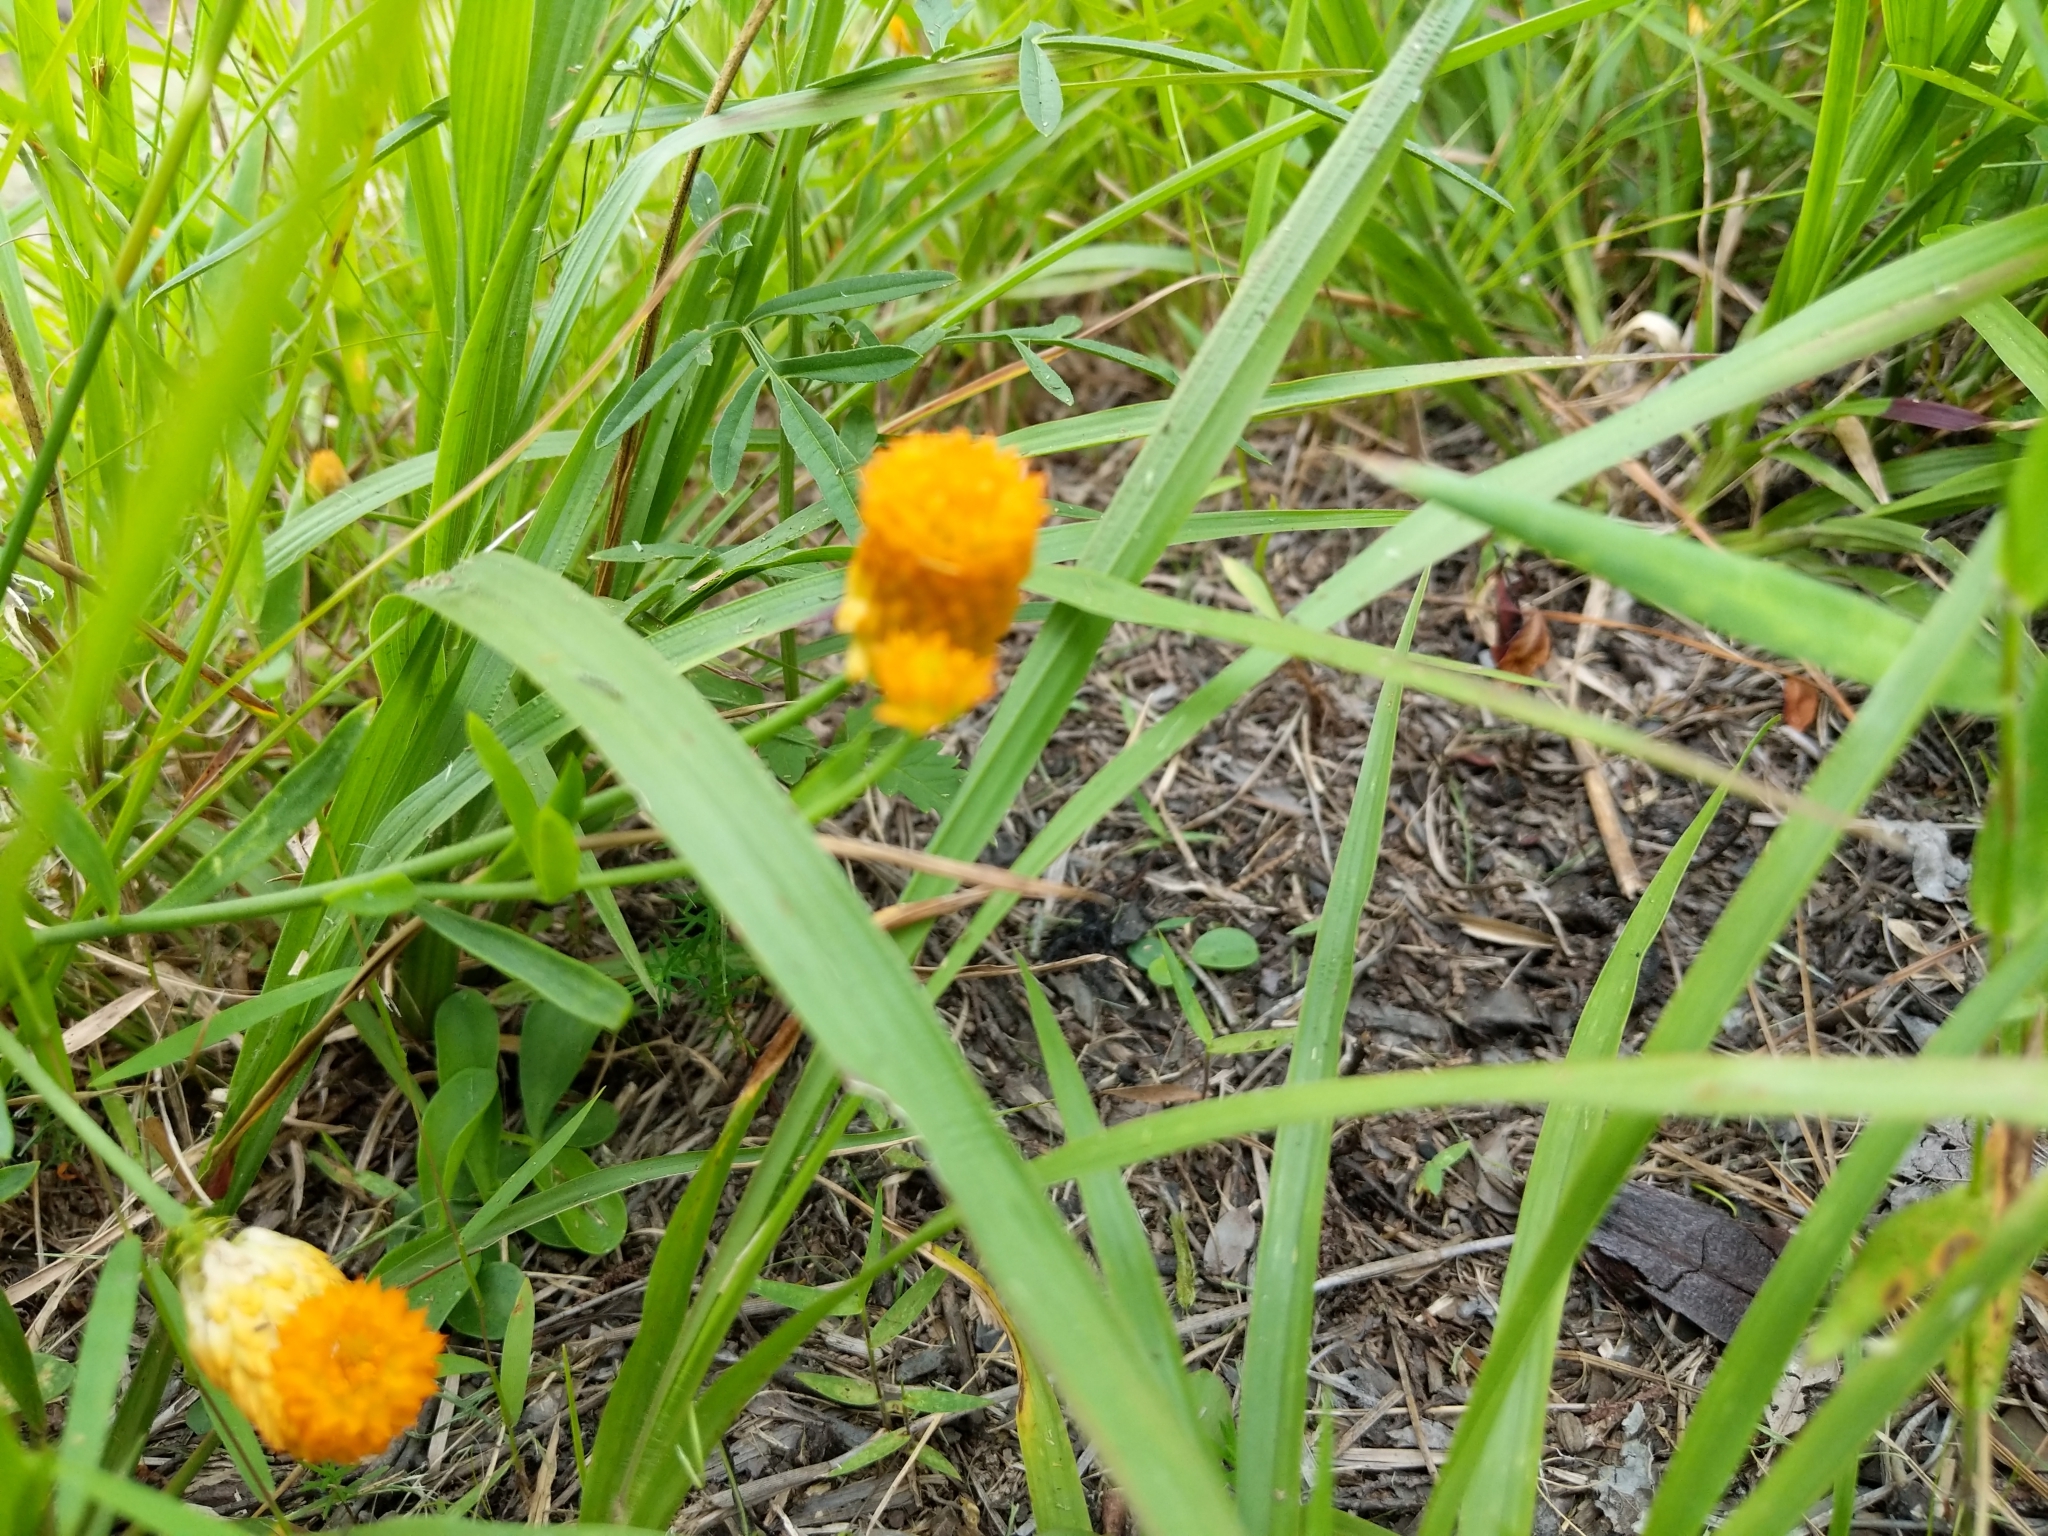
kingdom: Plantae
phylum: Tracheophyta
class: Magnoliopsida
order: Fabales
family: Polygalaceae
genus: Polygala
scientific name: Polygala lutea
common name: Orange milkwort
